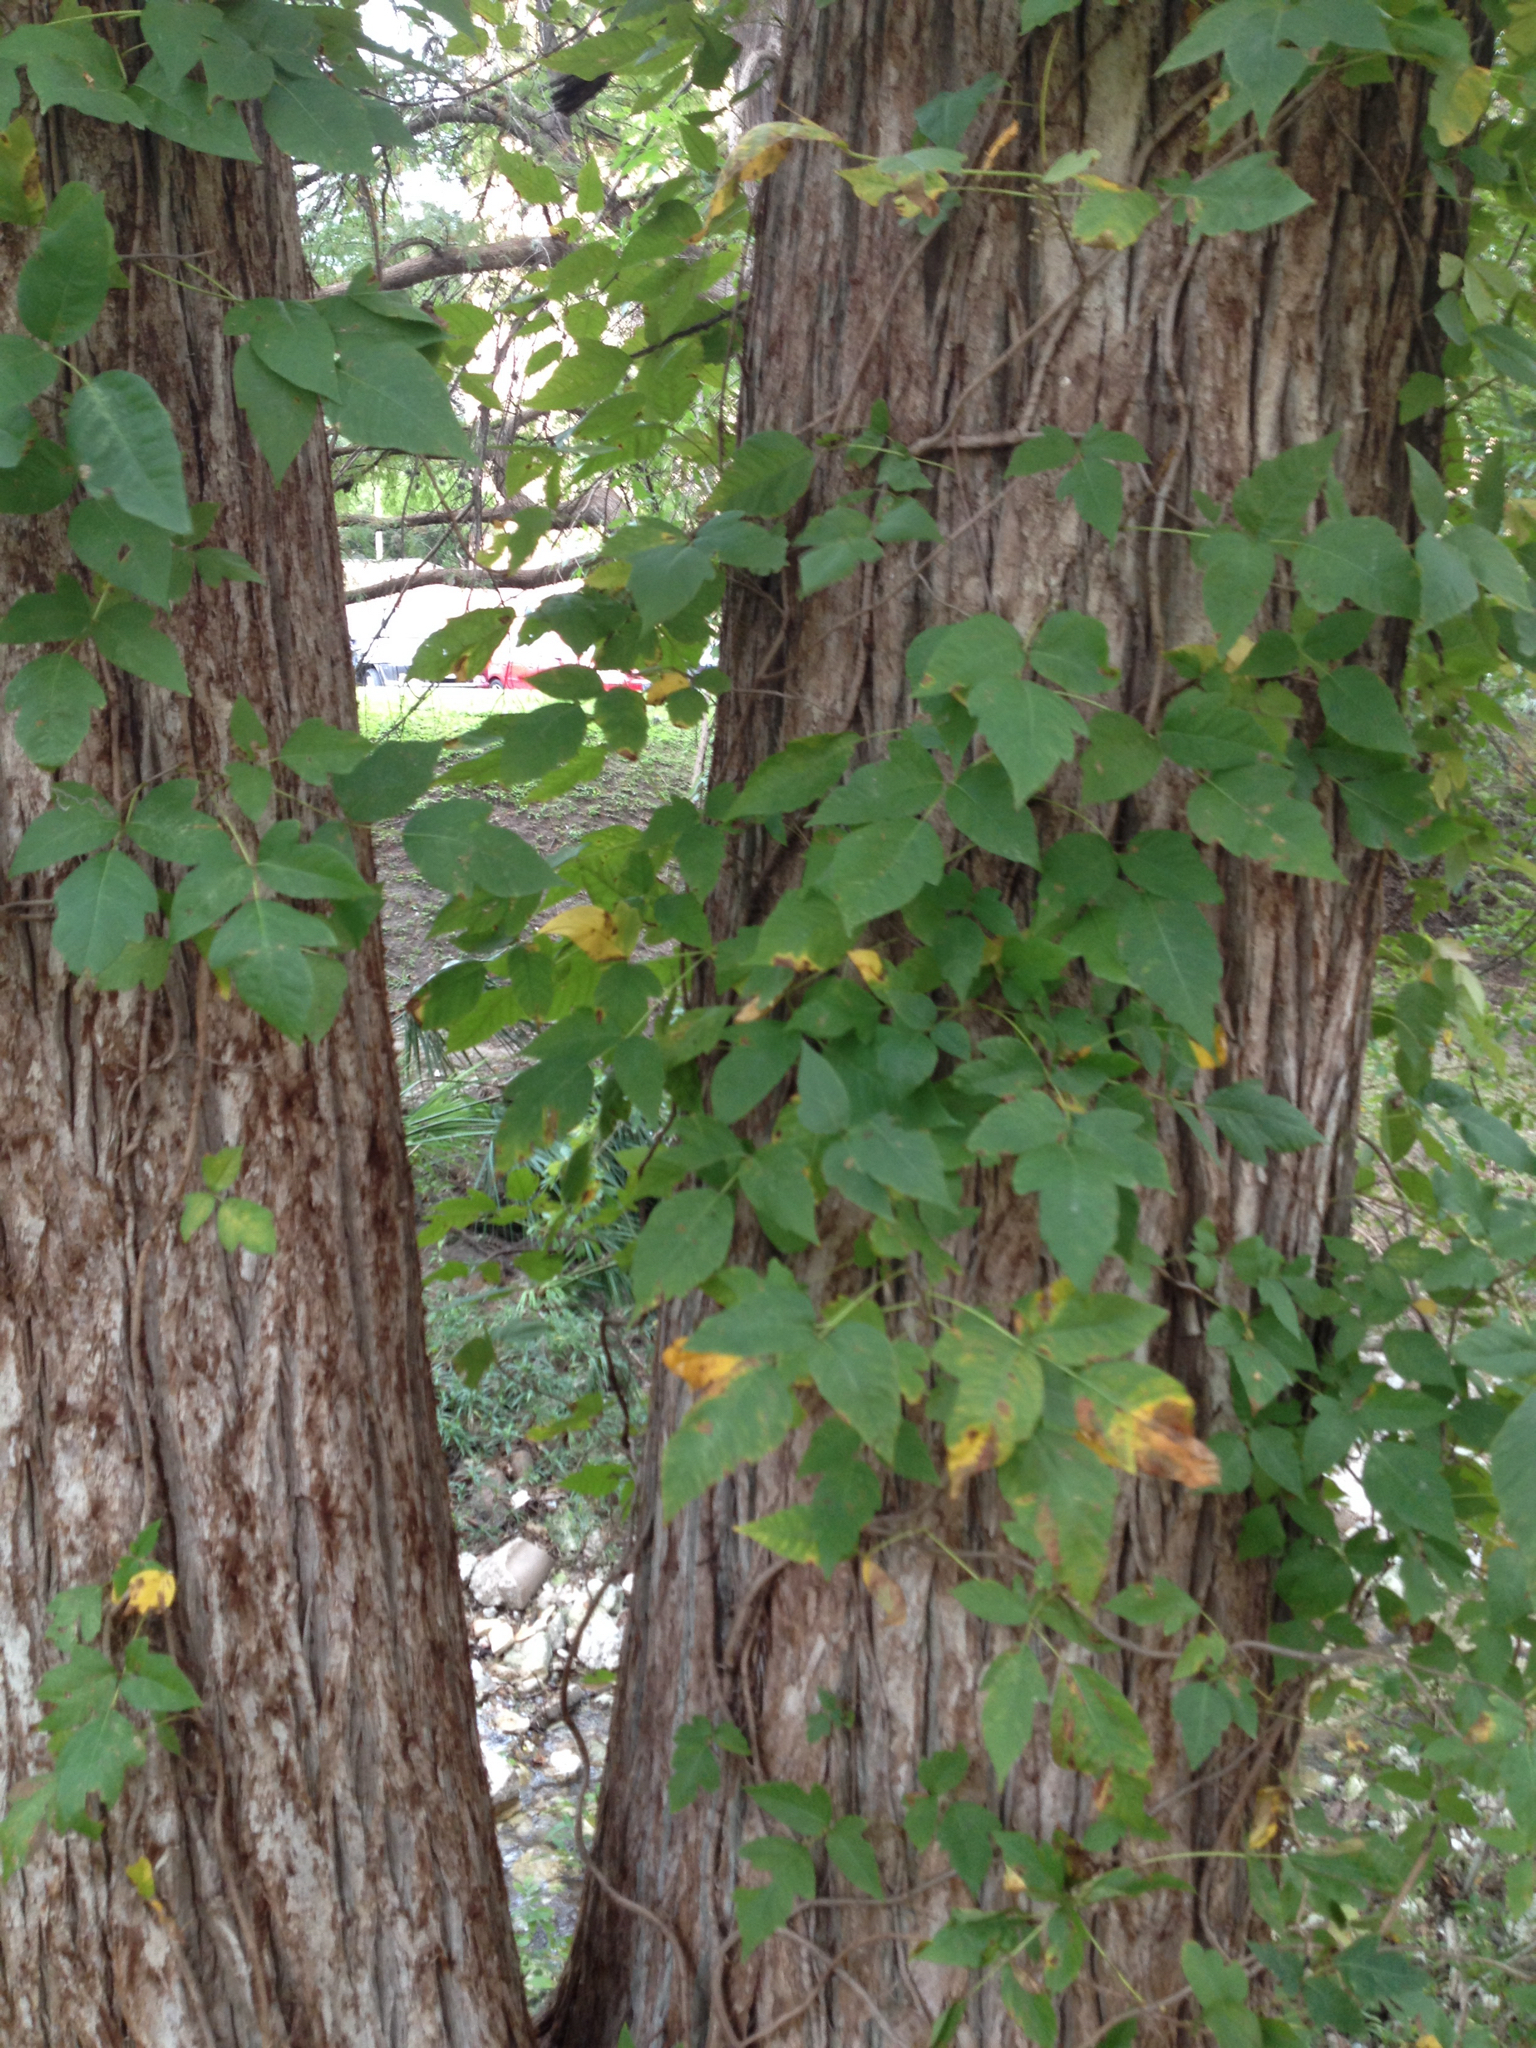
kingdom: Plantae
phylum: Tracheophyta
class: Magnoliopsida
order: Sapindales
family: Anacardiaceae
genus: Toxicodendron
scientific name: Toxicodendron radicans
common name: Poison ivy
